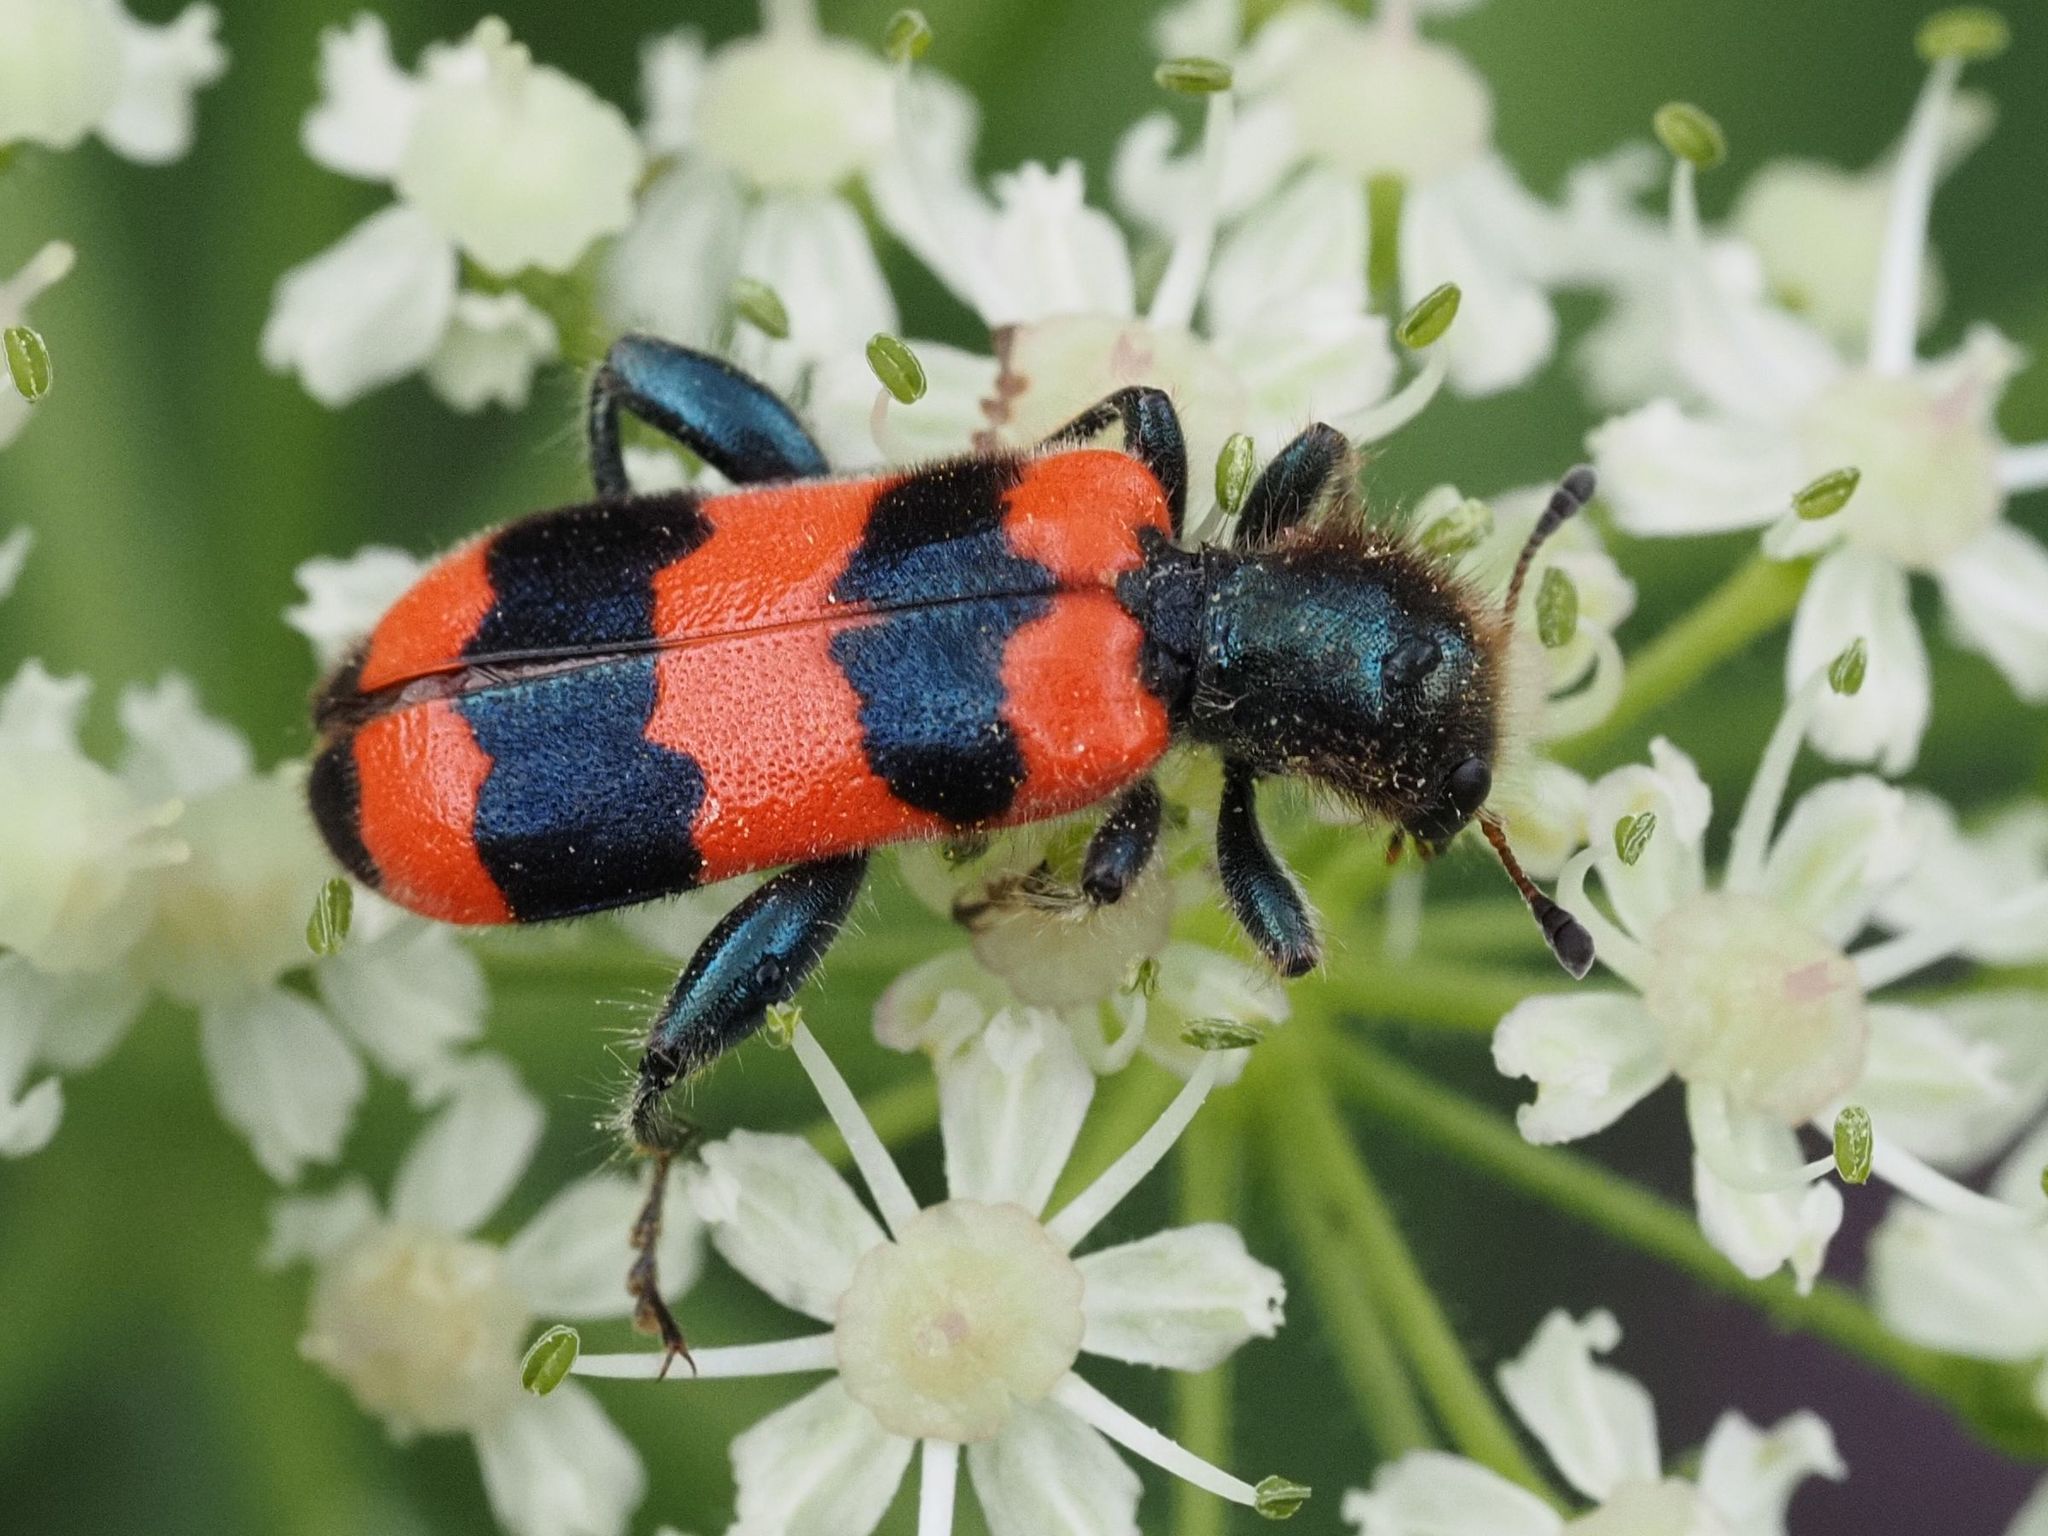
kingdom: Animalia
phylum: Arthropoda
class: Insecta
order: Coleoptera
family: Cleridae
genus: Trichodes
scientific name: Trichodes apiarius
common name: Bee-eating beetle
